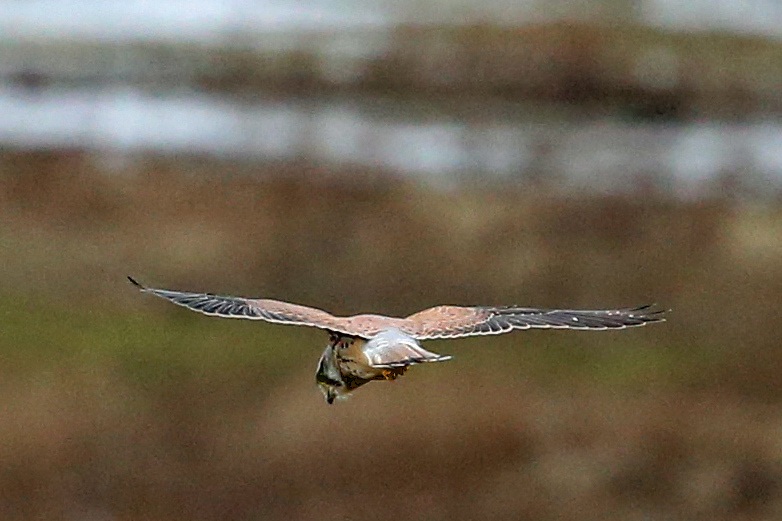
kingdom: Animalia
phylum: Chordata
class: Aves
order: Falconiformes
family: Falconidae
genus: Falco
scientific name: Falco tinnunculus
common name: Common kestrel
